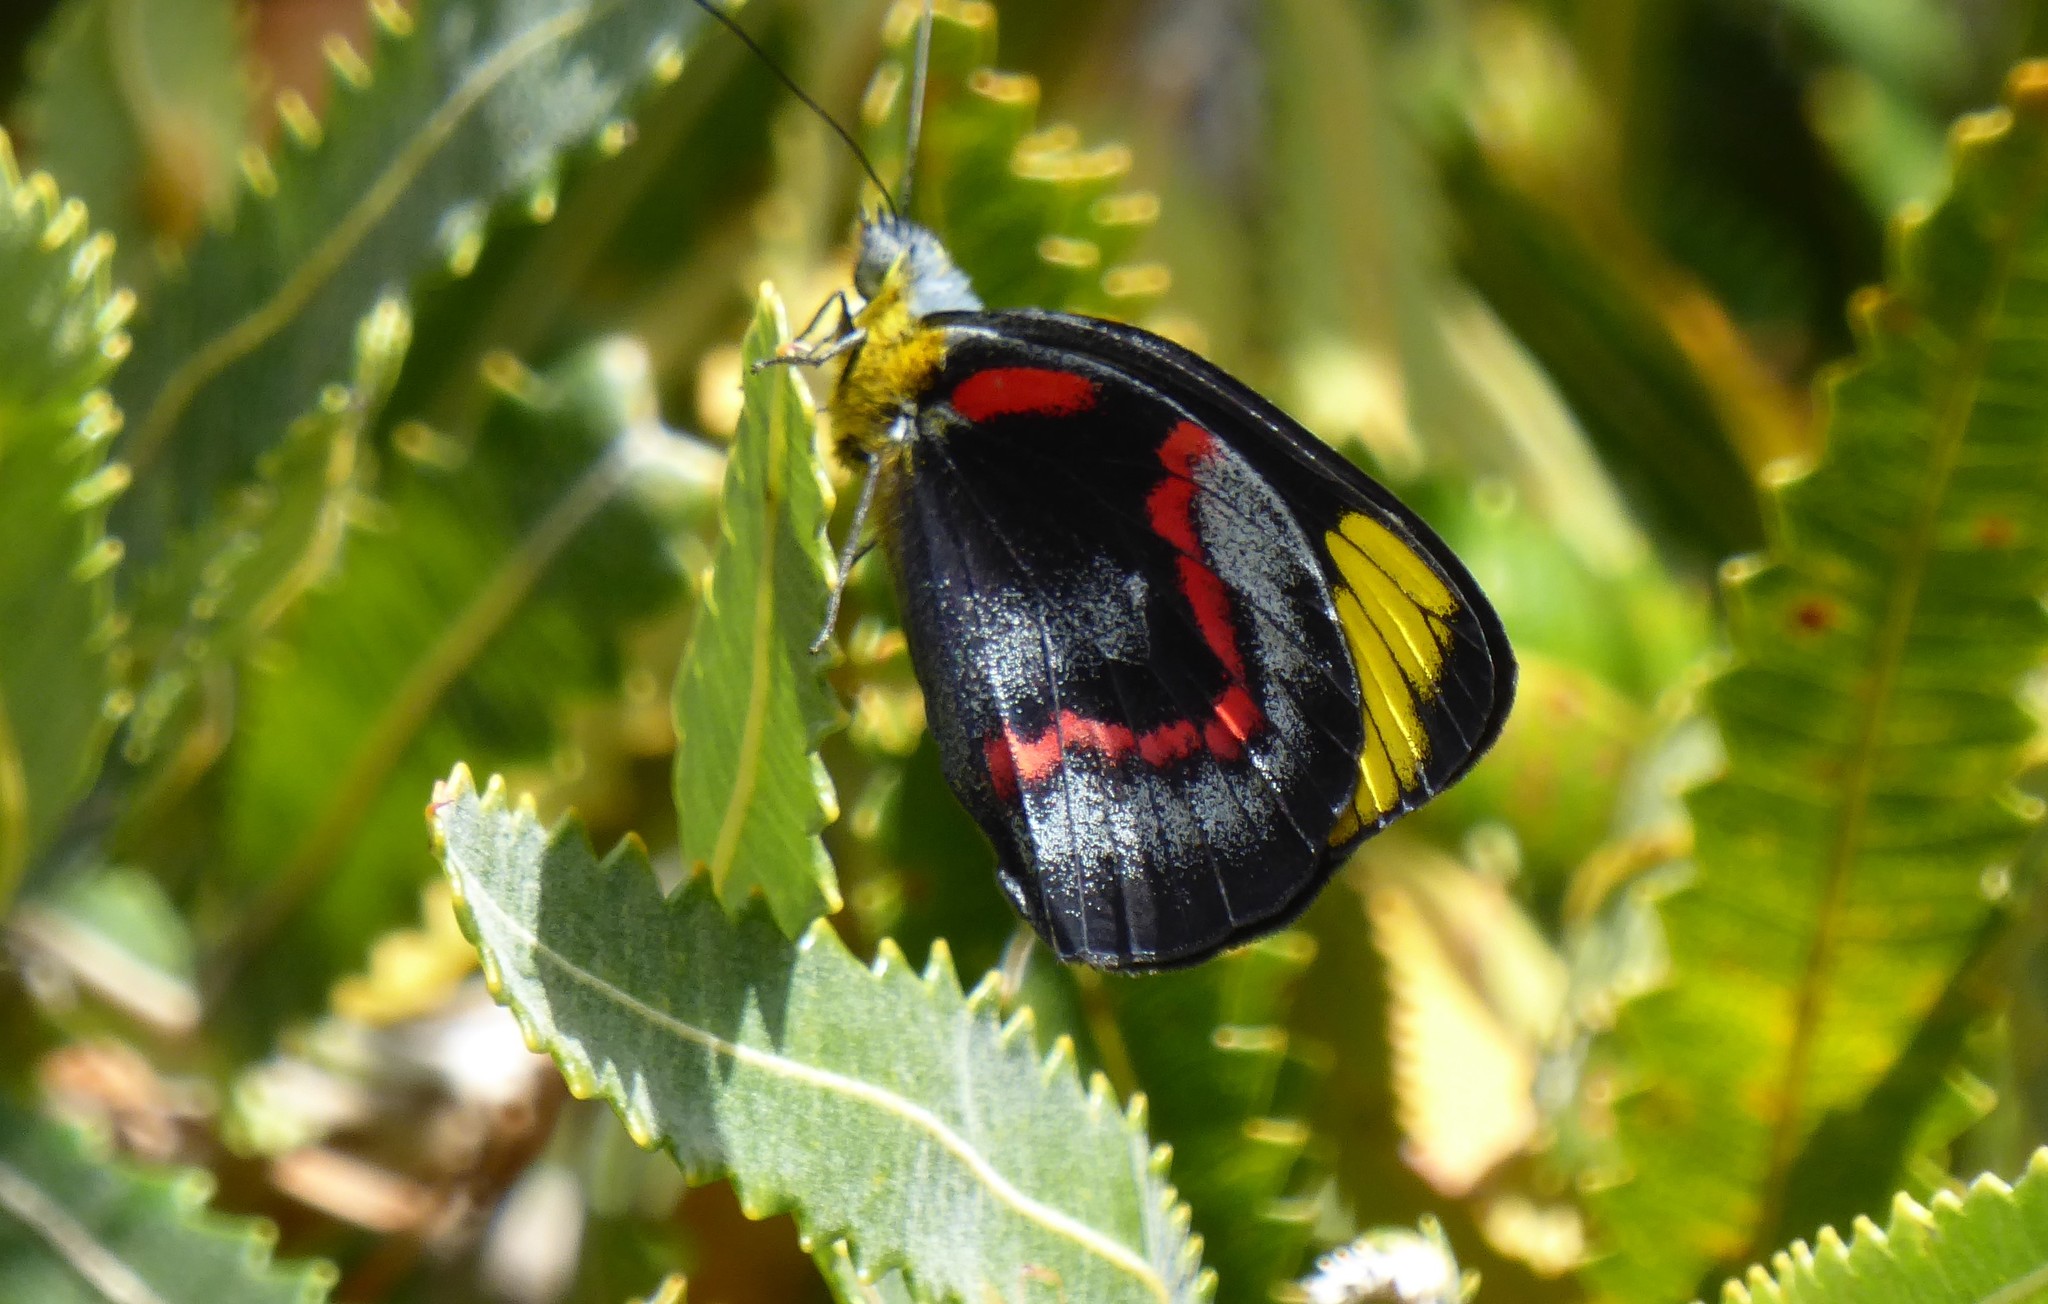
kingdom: Animalia
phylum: Arthropoda
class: Insecta
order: Lepidoptera
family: Pieridae
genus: Delias
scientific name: Delias nigrina
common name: Black jezebel
